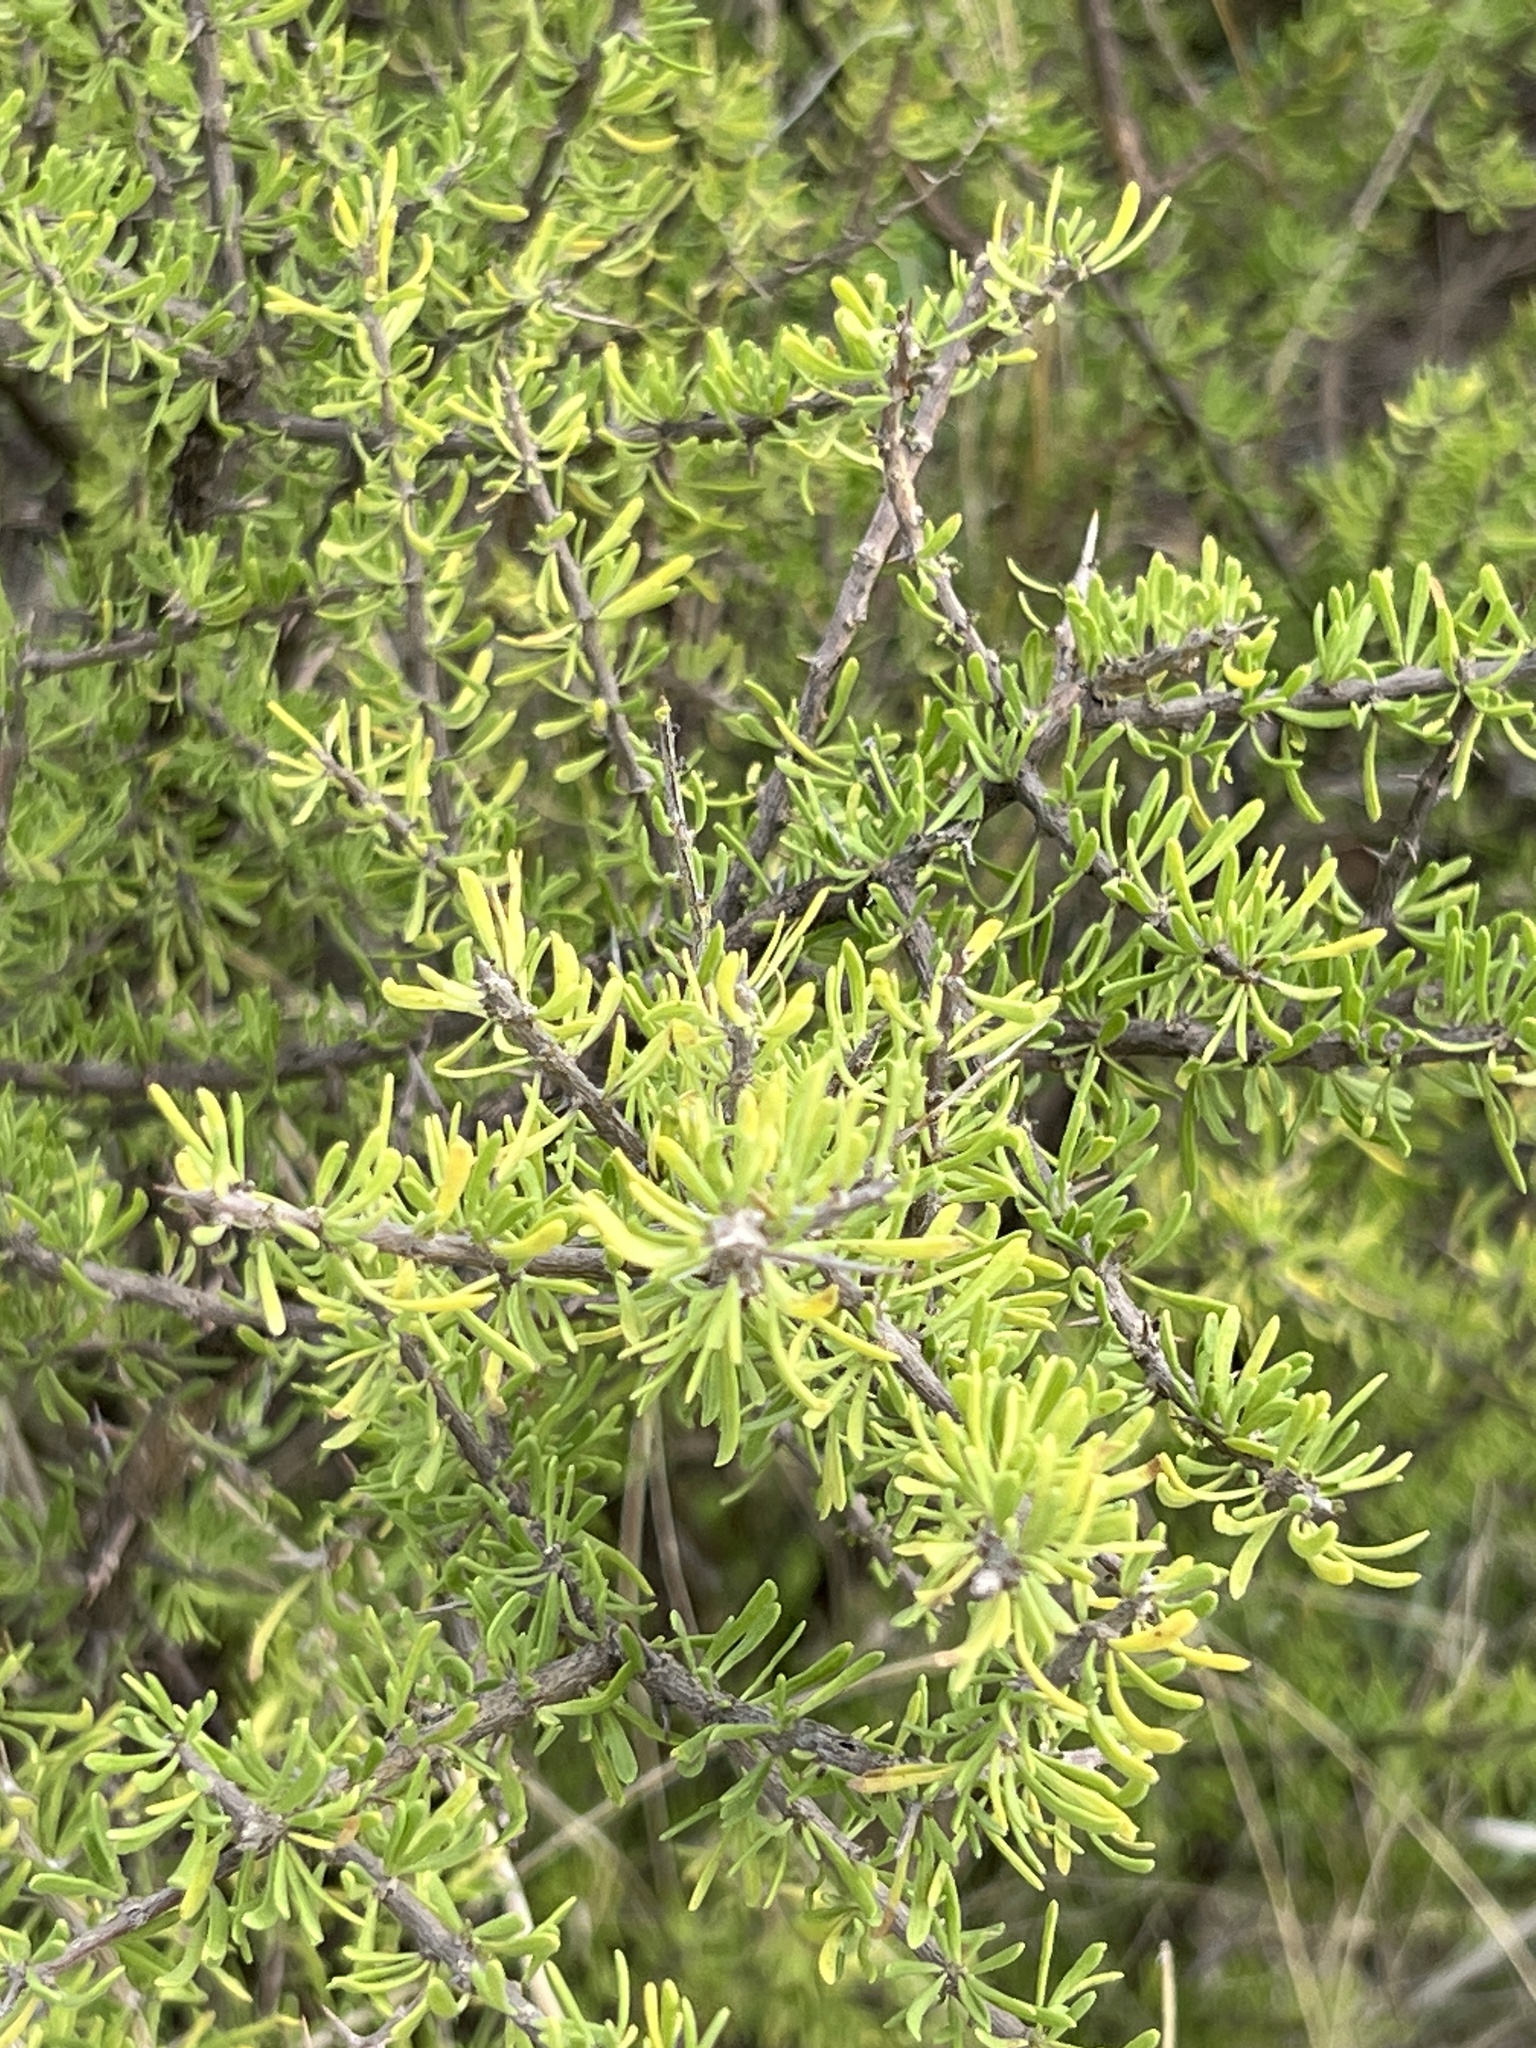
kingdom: Plantae
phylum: Tracheophyta
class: Magnoliopsida
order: Lamiales
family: Oleaceae
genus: Forestiera
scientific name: Forestiera angustifolia
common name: Elbowbush
